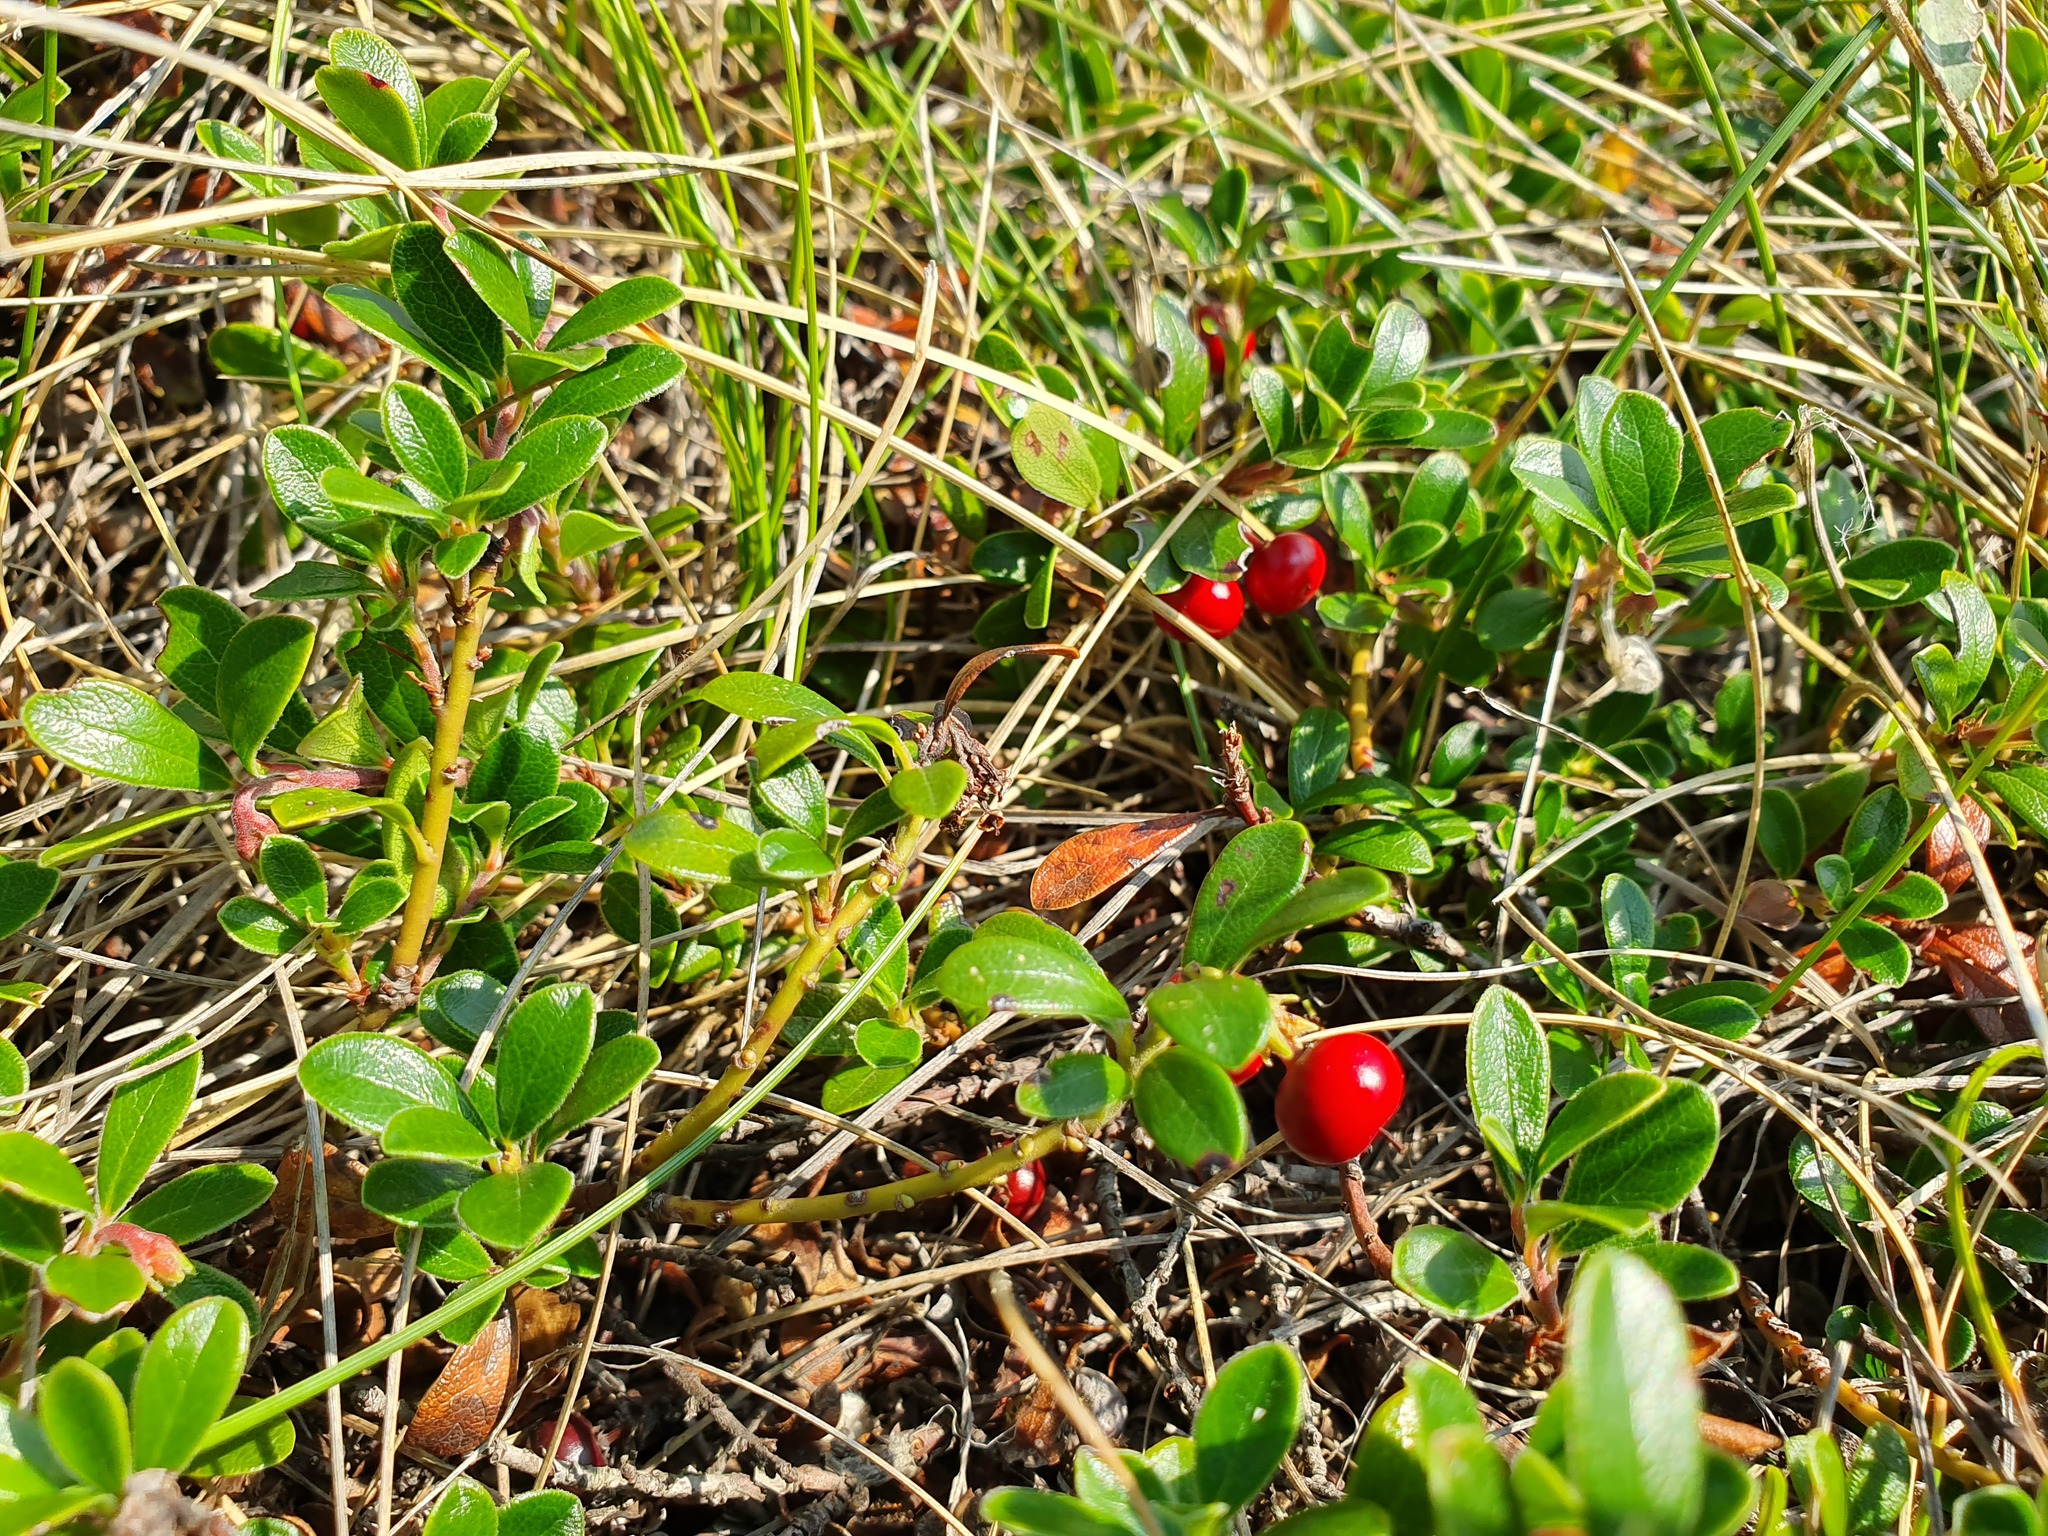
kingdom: Plantae
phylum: Tracheophyta
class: Magnoliopsida
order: Ericales
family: Ericaceae
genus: Arctostaphylos
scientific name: Arctostaphylos uva-ursi
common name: Bearberry
